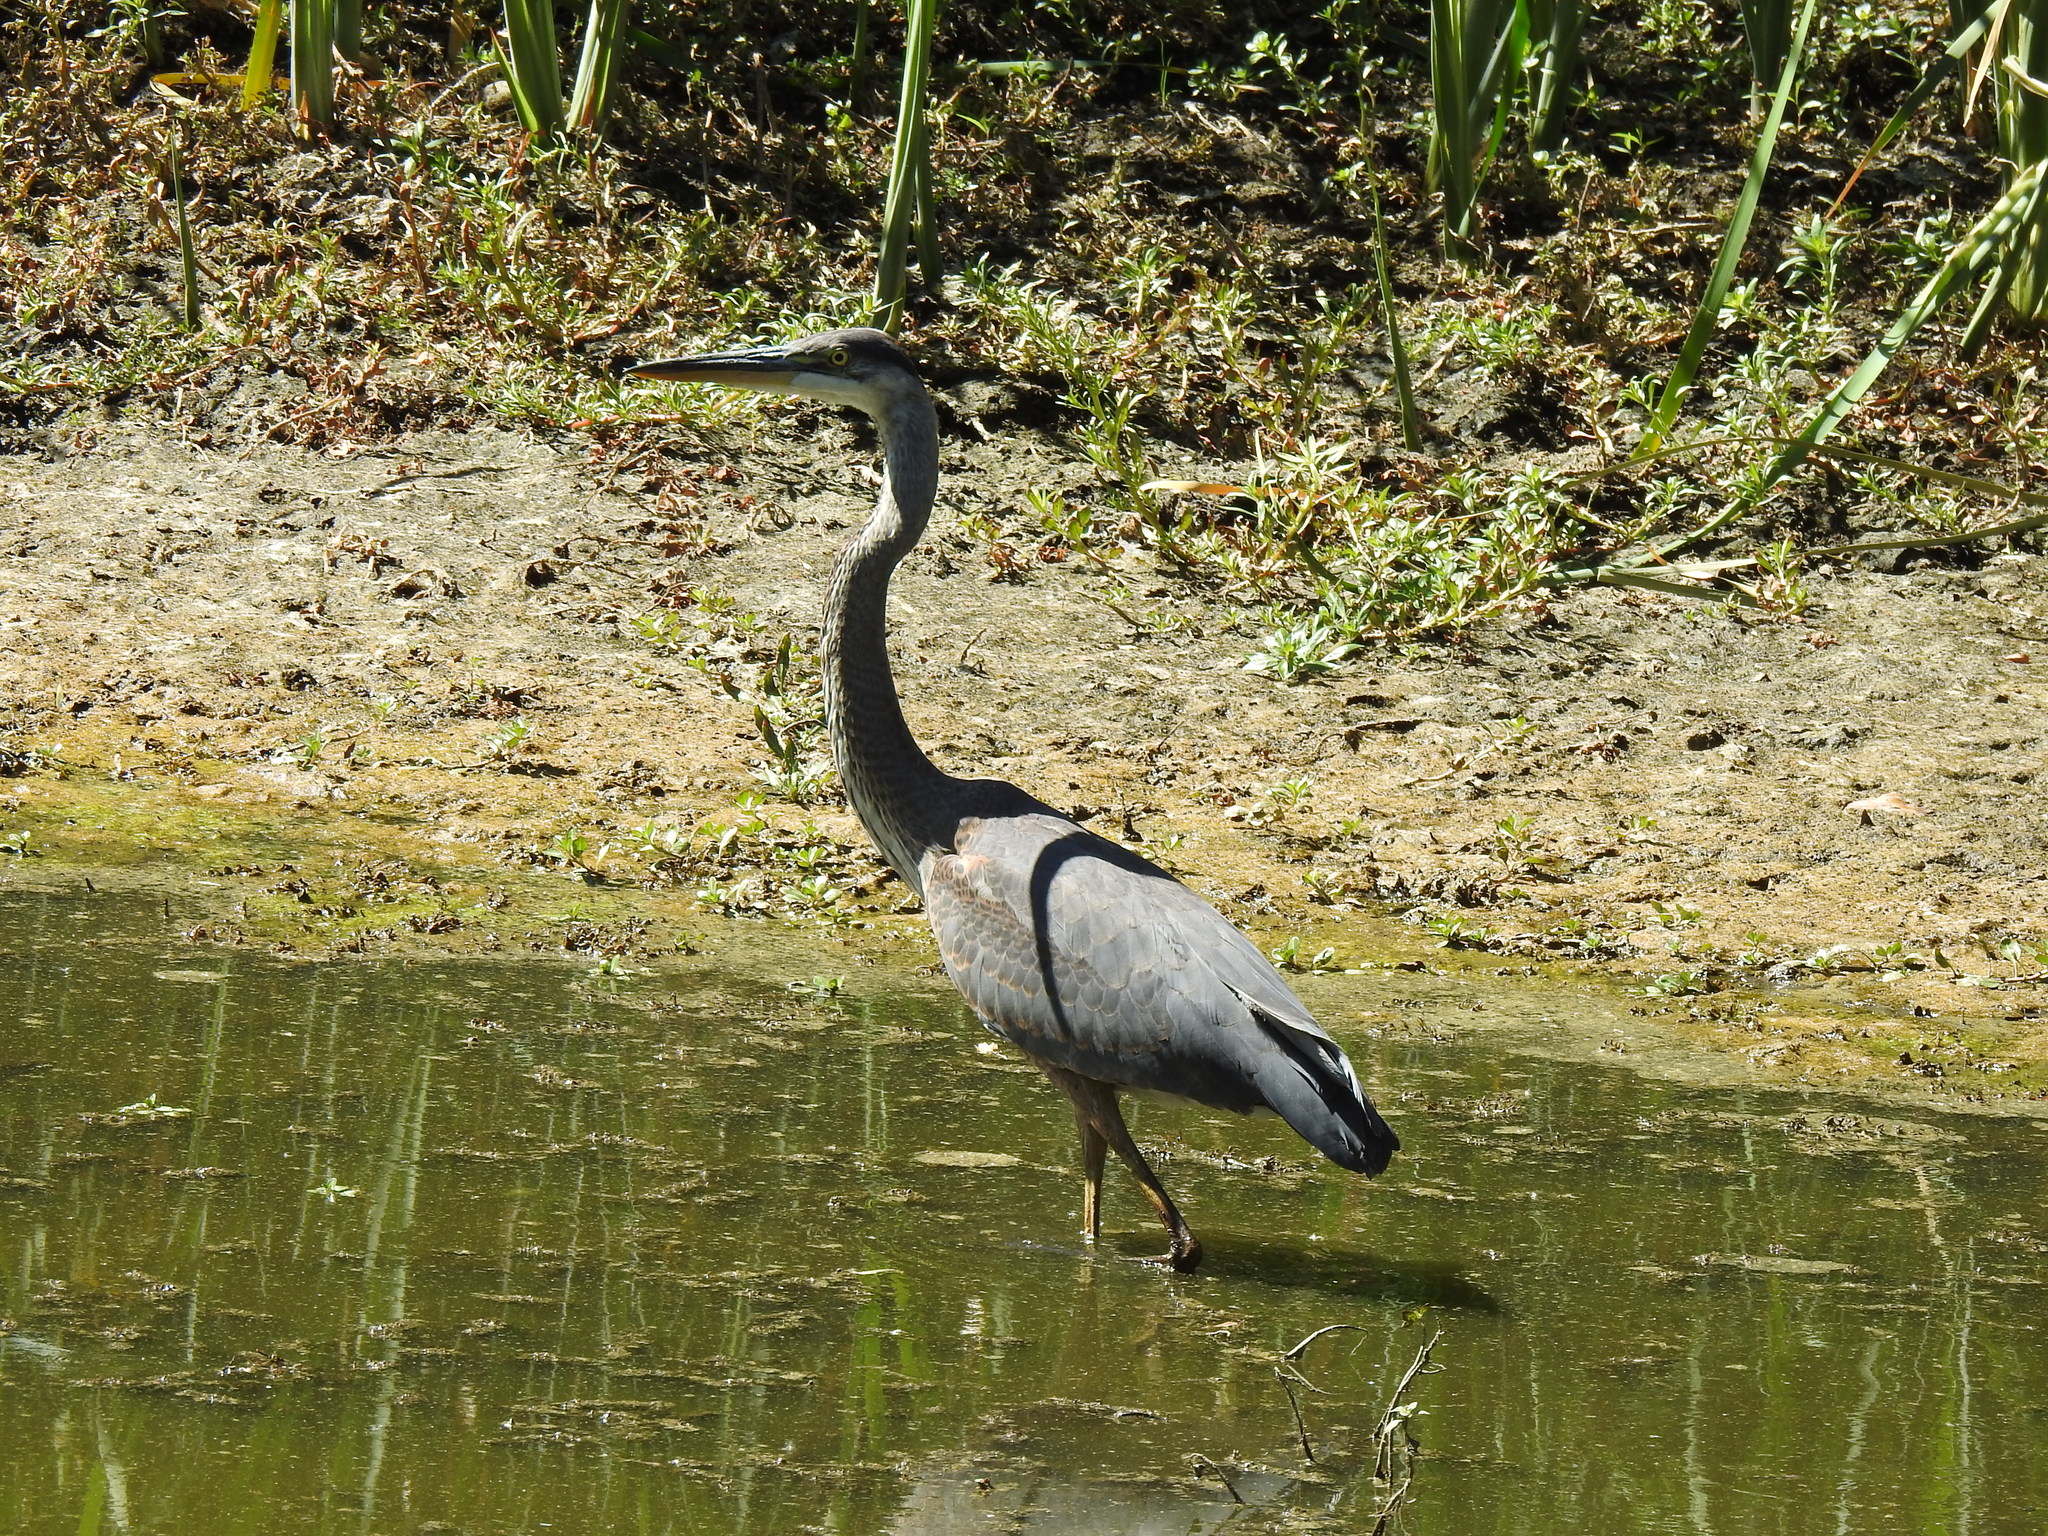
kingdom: Animalia
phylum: Chordata
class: Aves
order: Pelecaniformes
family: Ardeidae
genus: Ardea
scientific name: Ardea herodias
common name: Great blue heron
